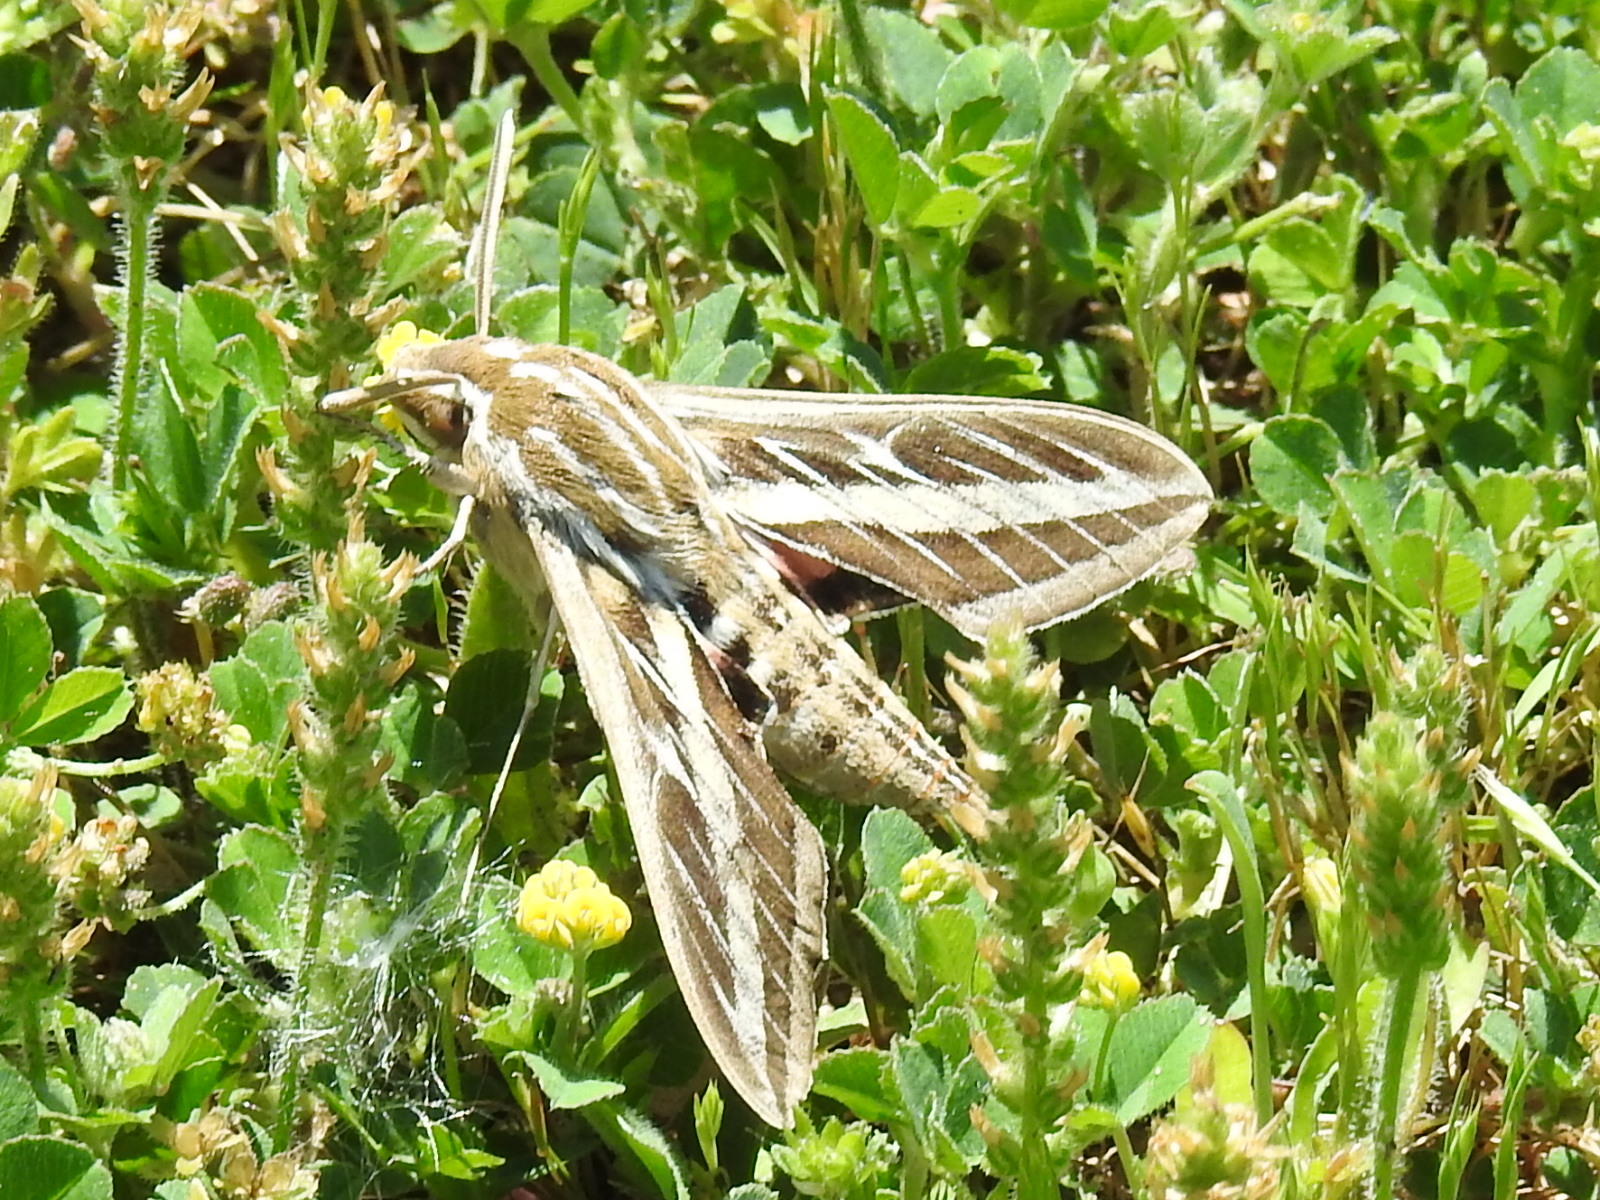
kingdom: Animalia
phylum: Arthropoda
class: Insecta
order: Lepidoptera
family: Sphingidae
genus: Hyles
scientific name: Hyles lineata
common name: White-lined sphinx
